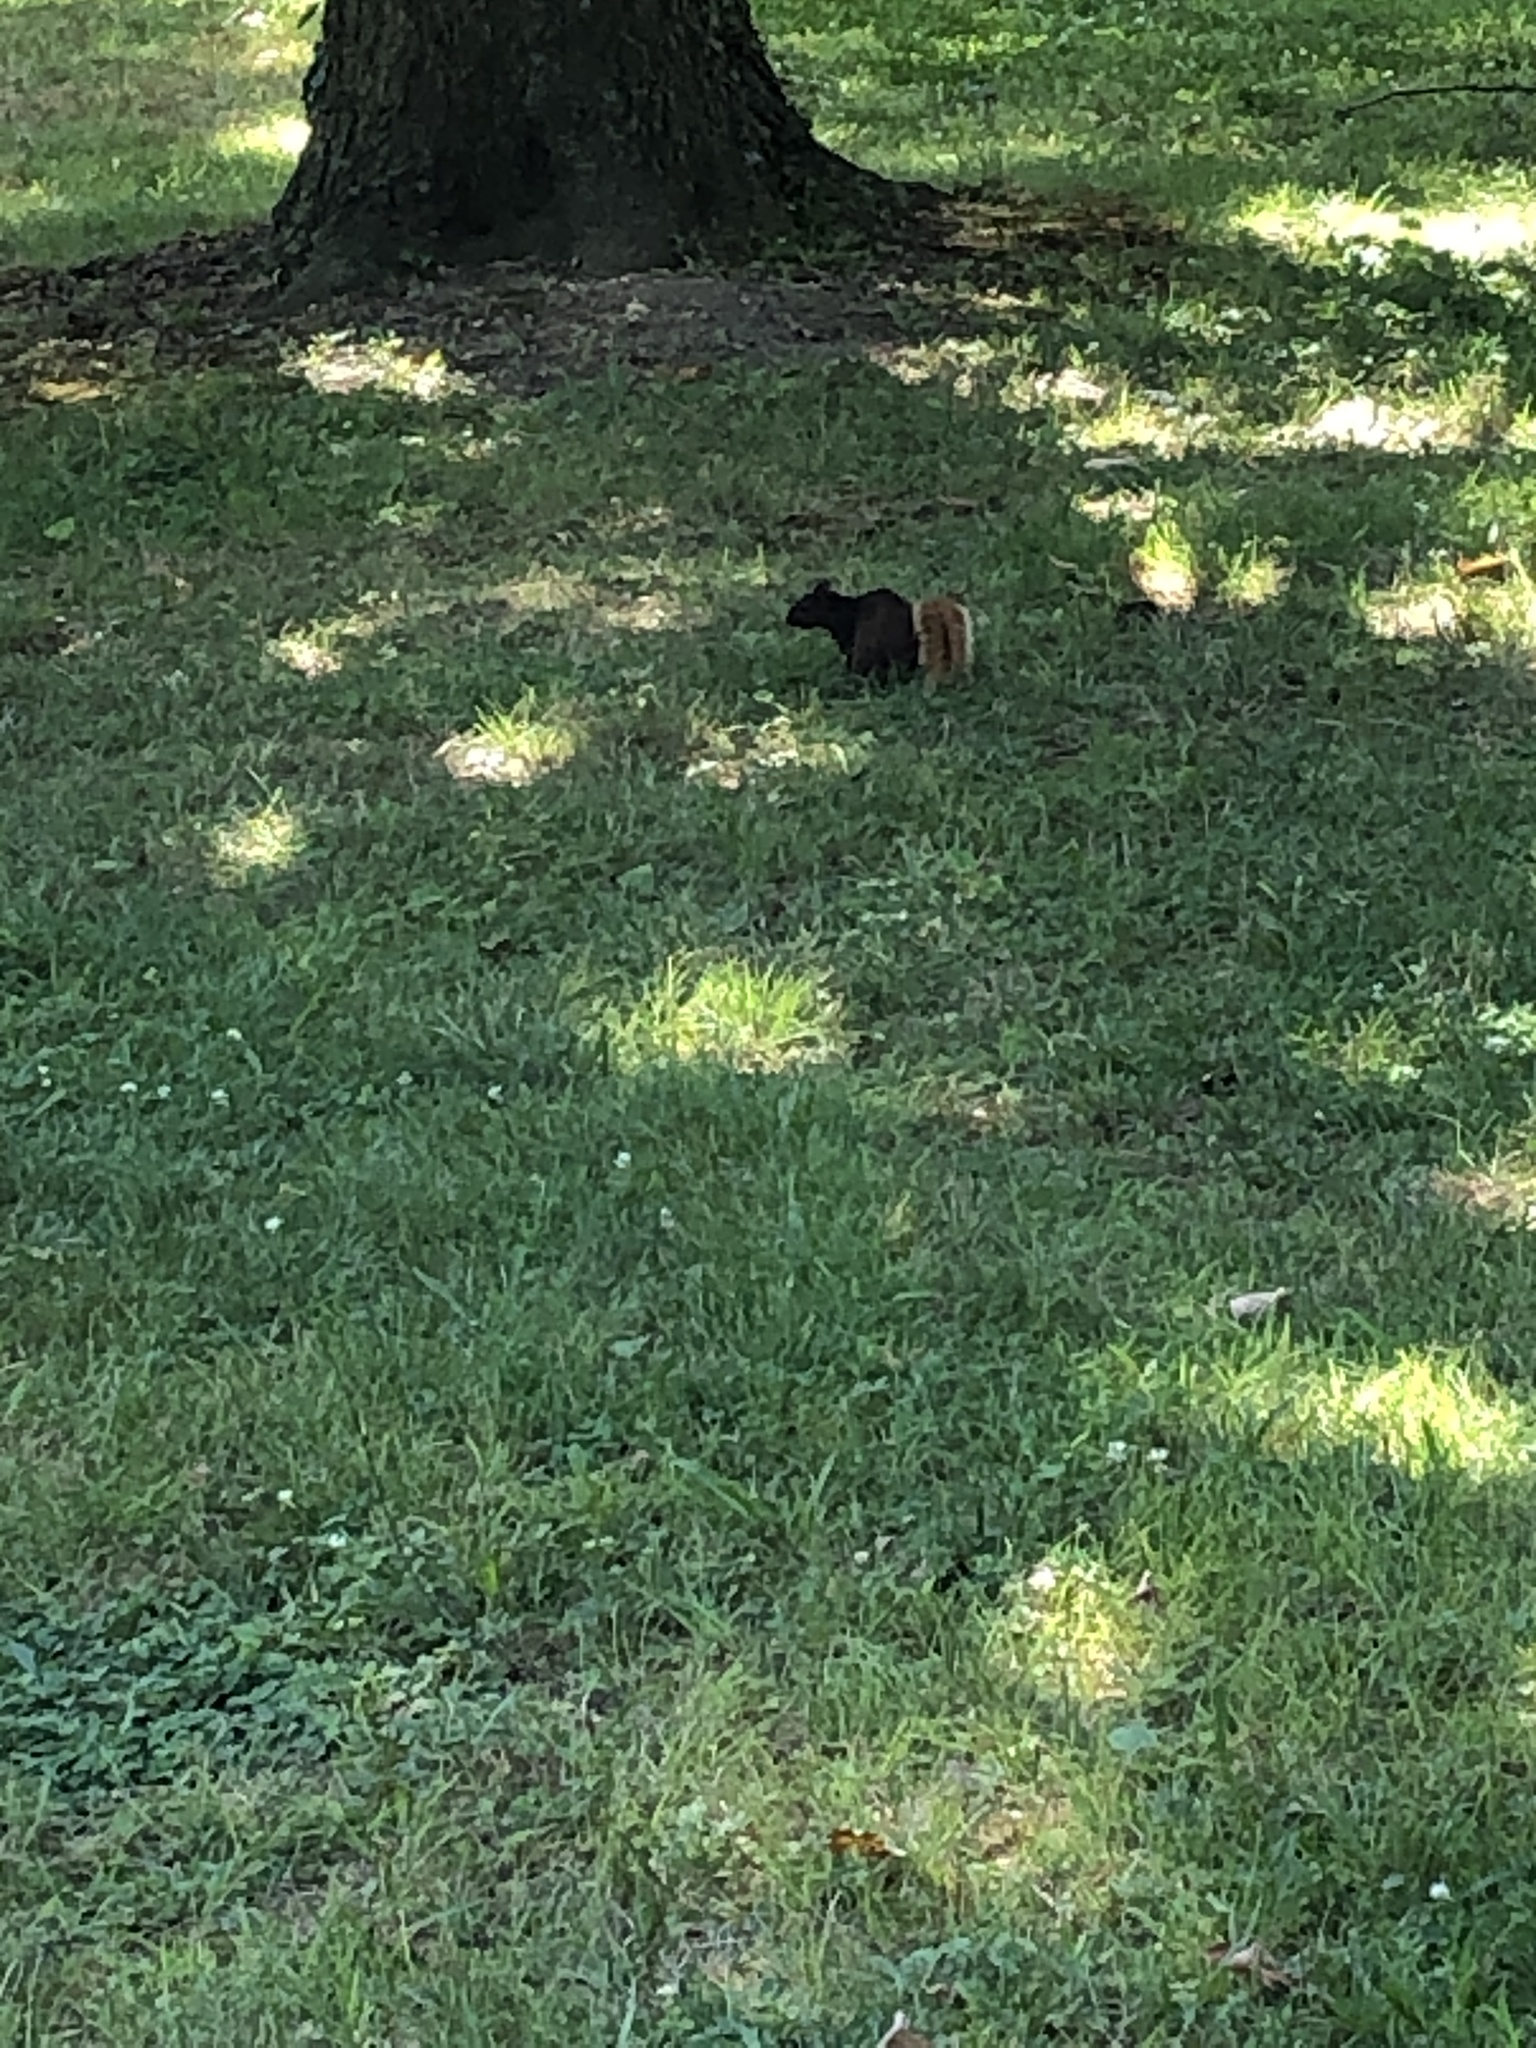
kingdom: Animalia
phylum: Chordata
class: Mammalia
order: Rodentia
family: Sciuridae
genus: Sciurus
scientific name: Sciurus carolinensis
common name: Eastern gray squirrel
